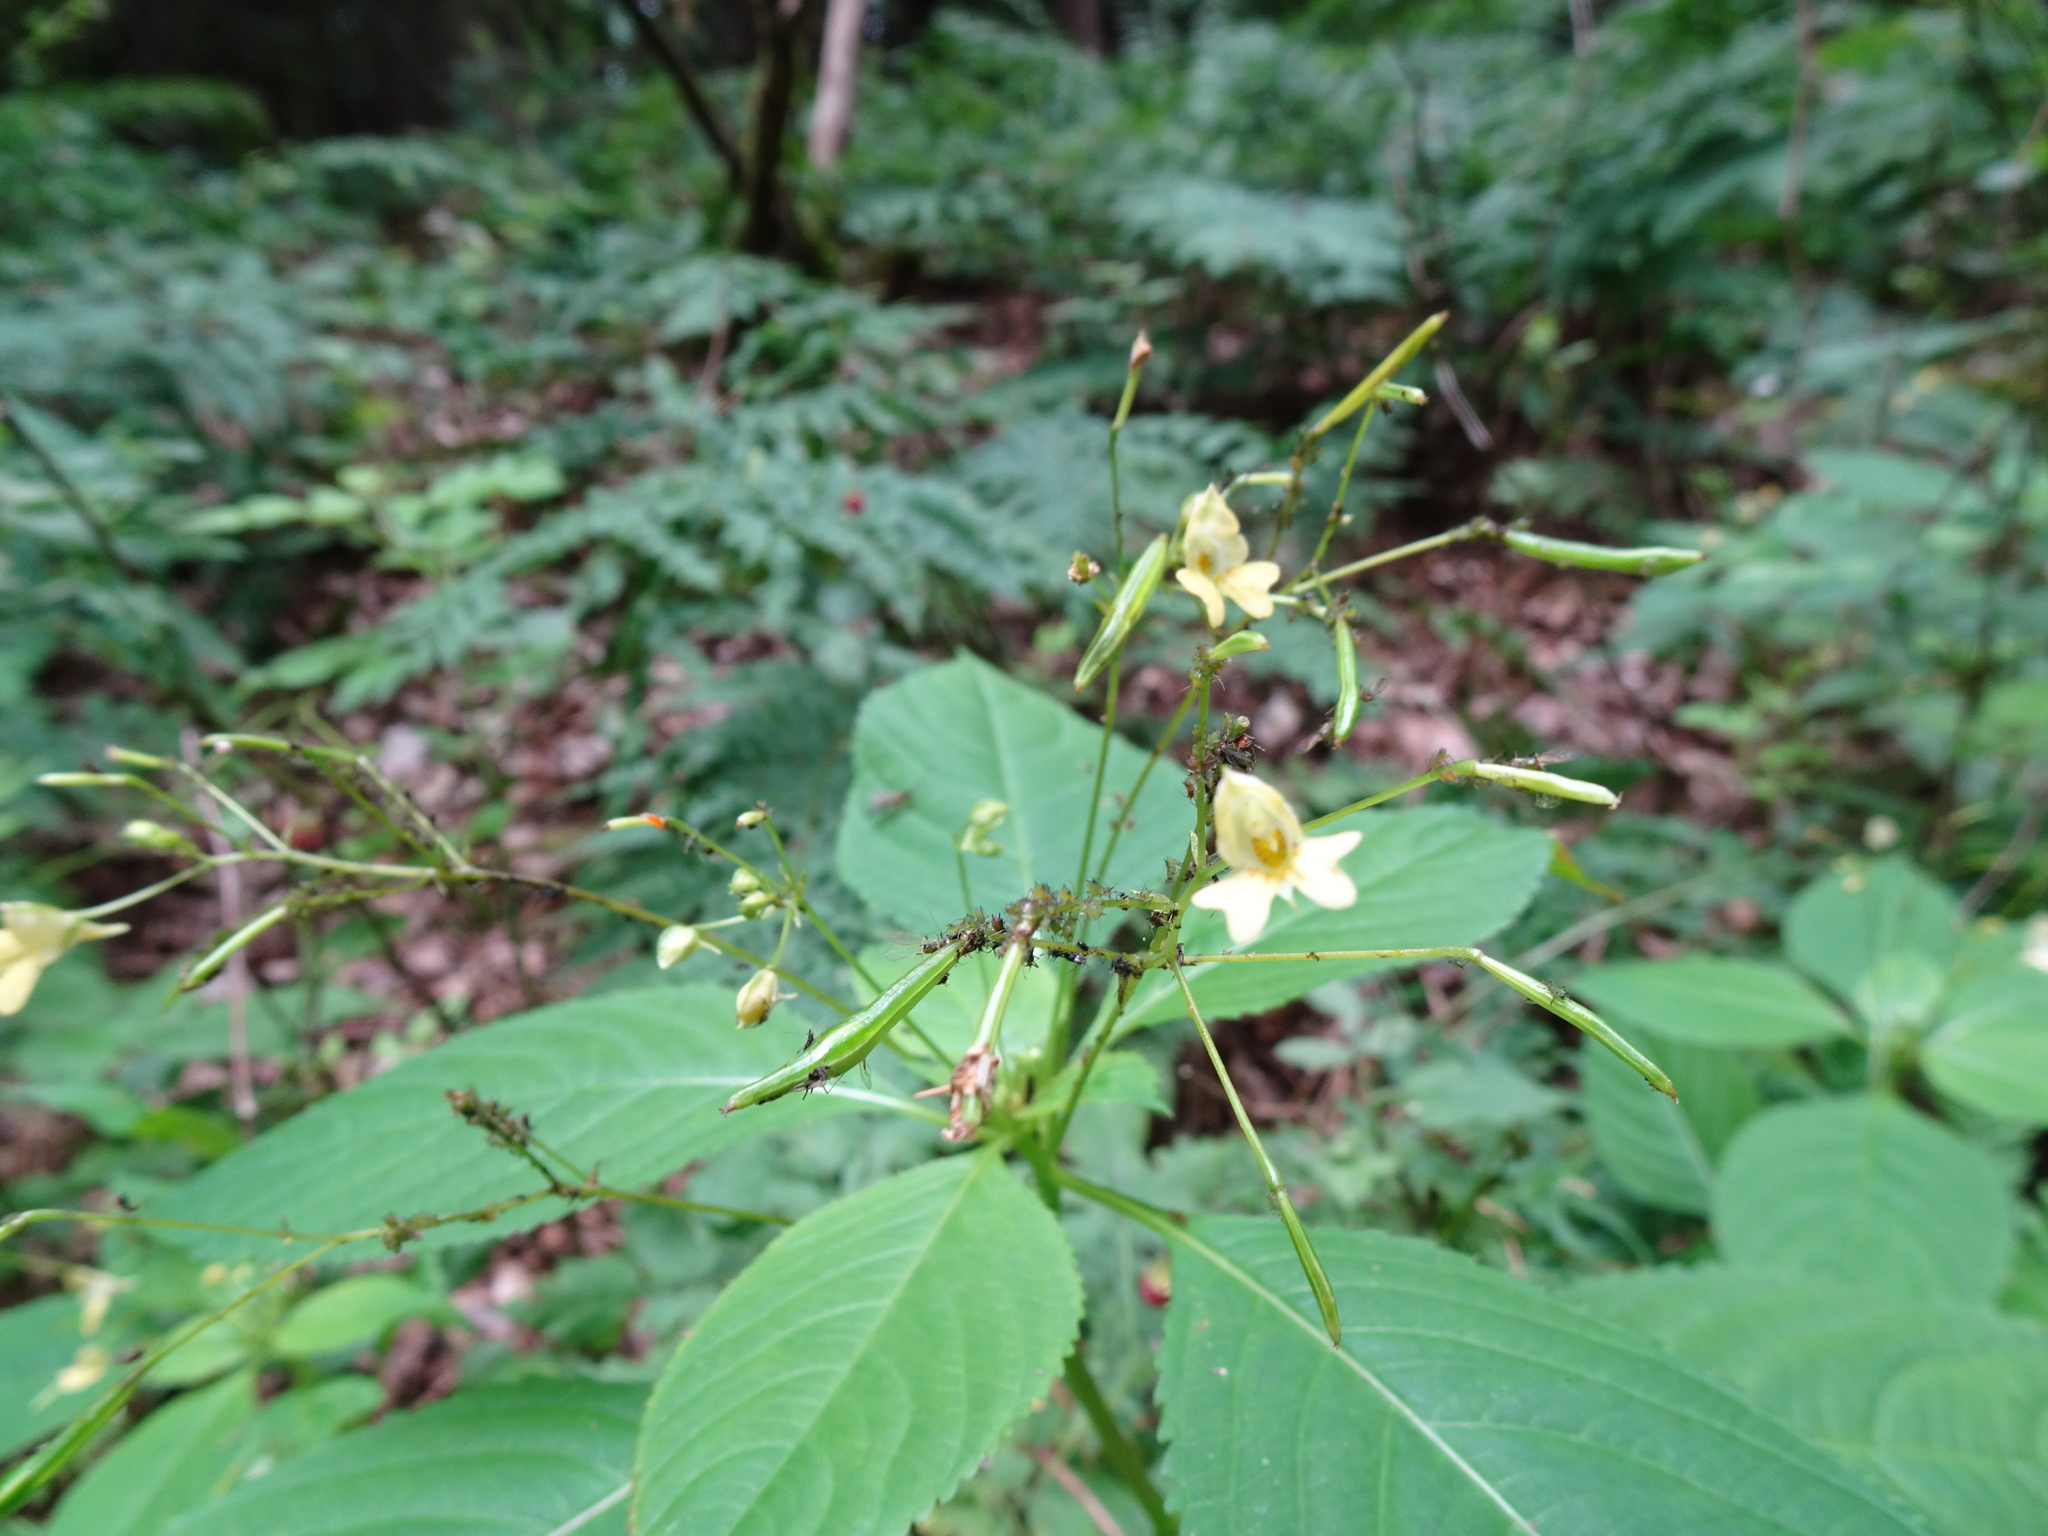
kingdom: Plantae
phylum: Tracheophyta
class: Magnoliopsida
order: Ericales
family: Balsaminaceae
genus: Impatiens
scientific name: Impatiens parviflora
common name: Small balsam
